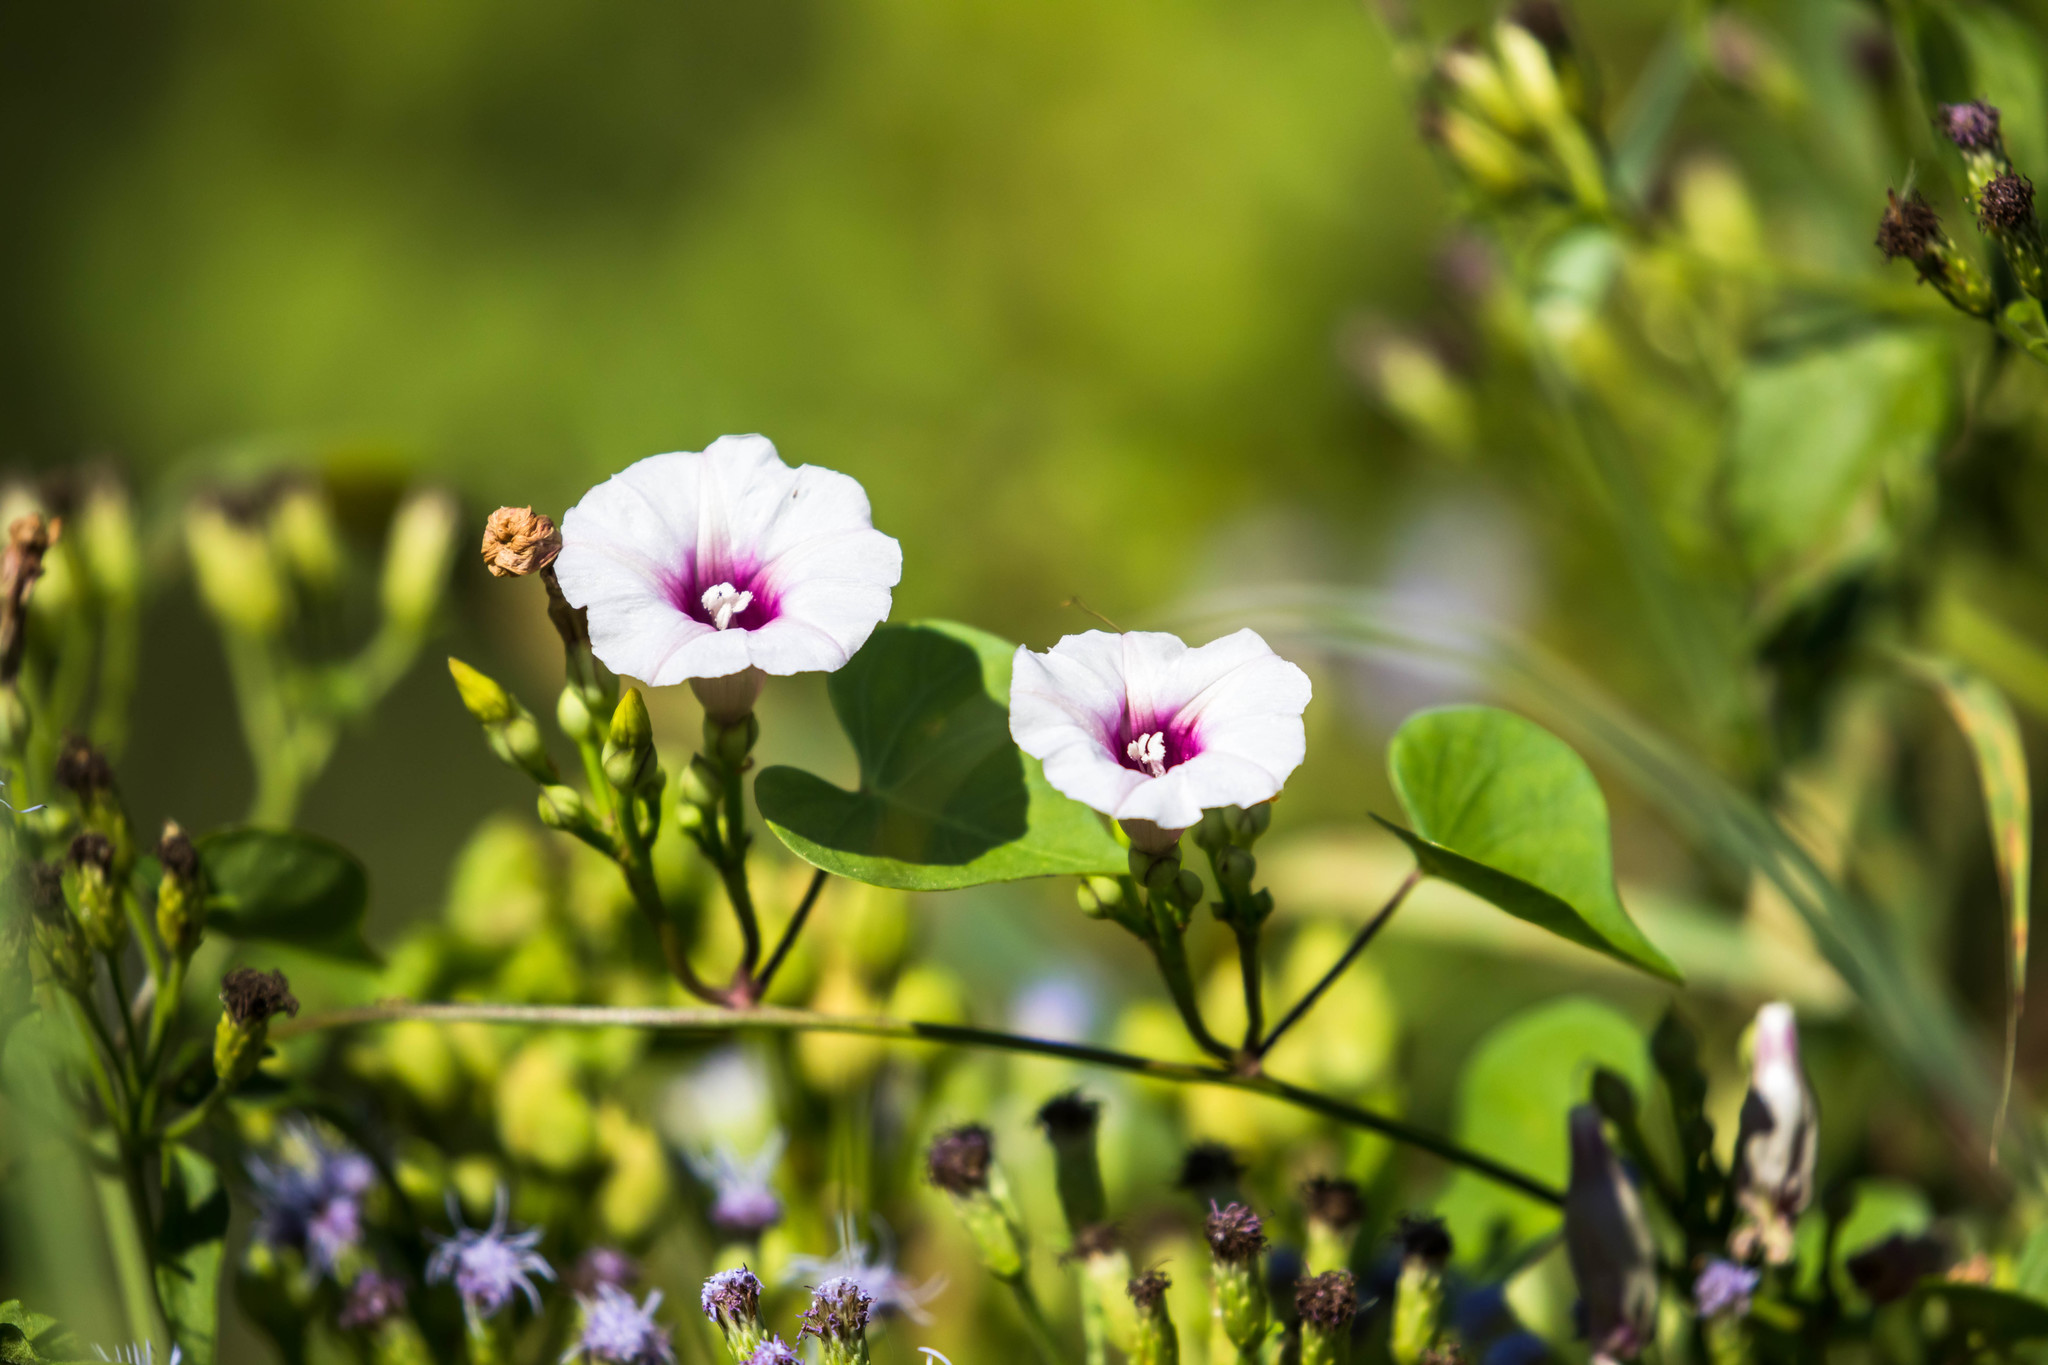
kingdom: Plantae
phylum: Tracheophyta
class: Magnoliopsida
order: Solanales
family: Convolvulaceae
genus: Ipomoea
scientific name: Ipomoea amnicola
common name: Redcenter morning-glory
